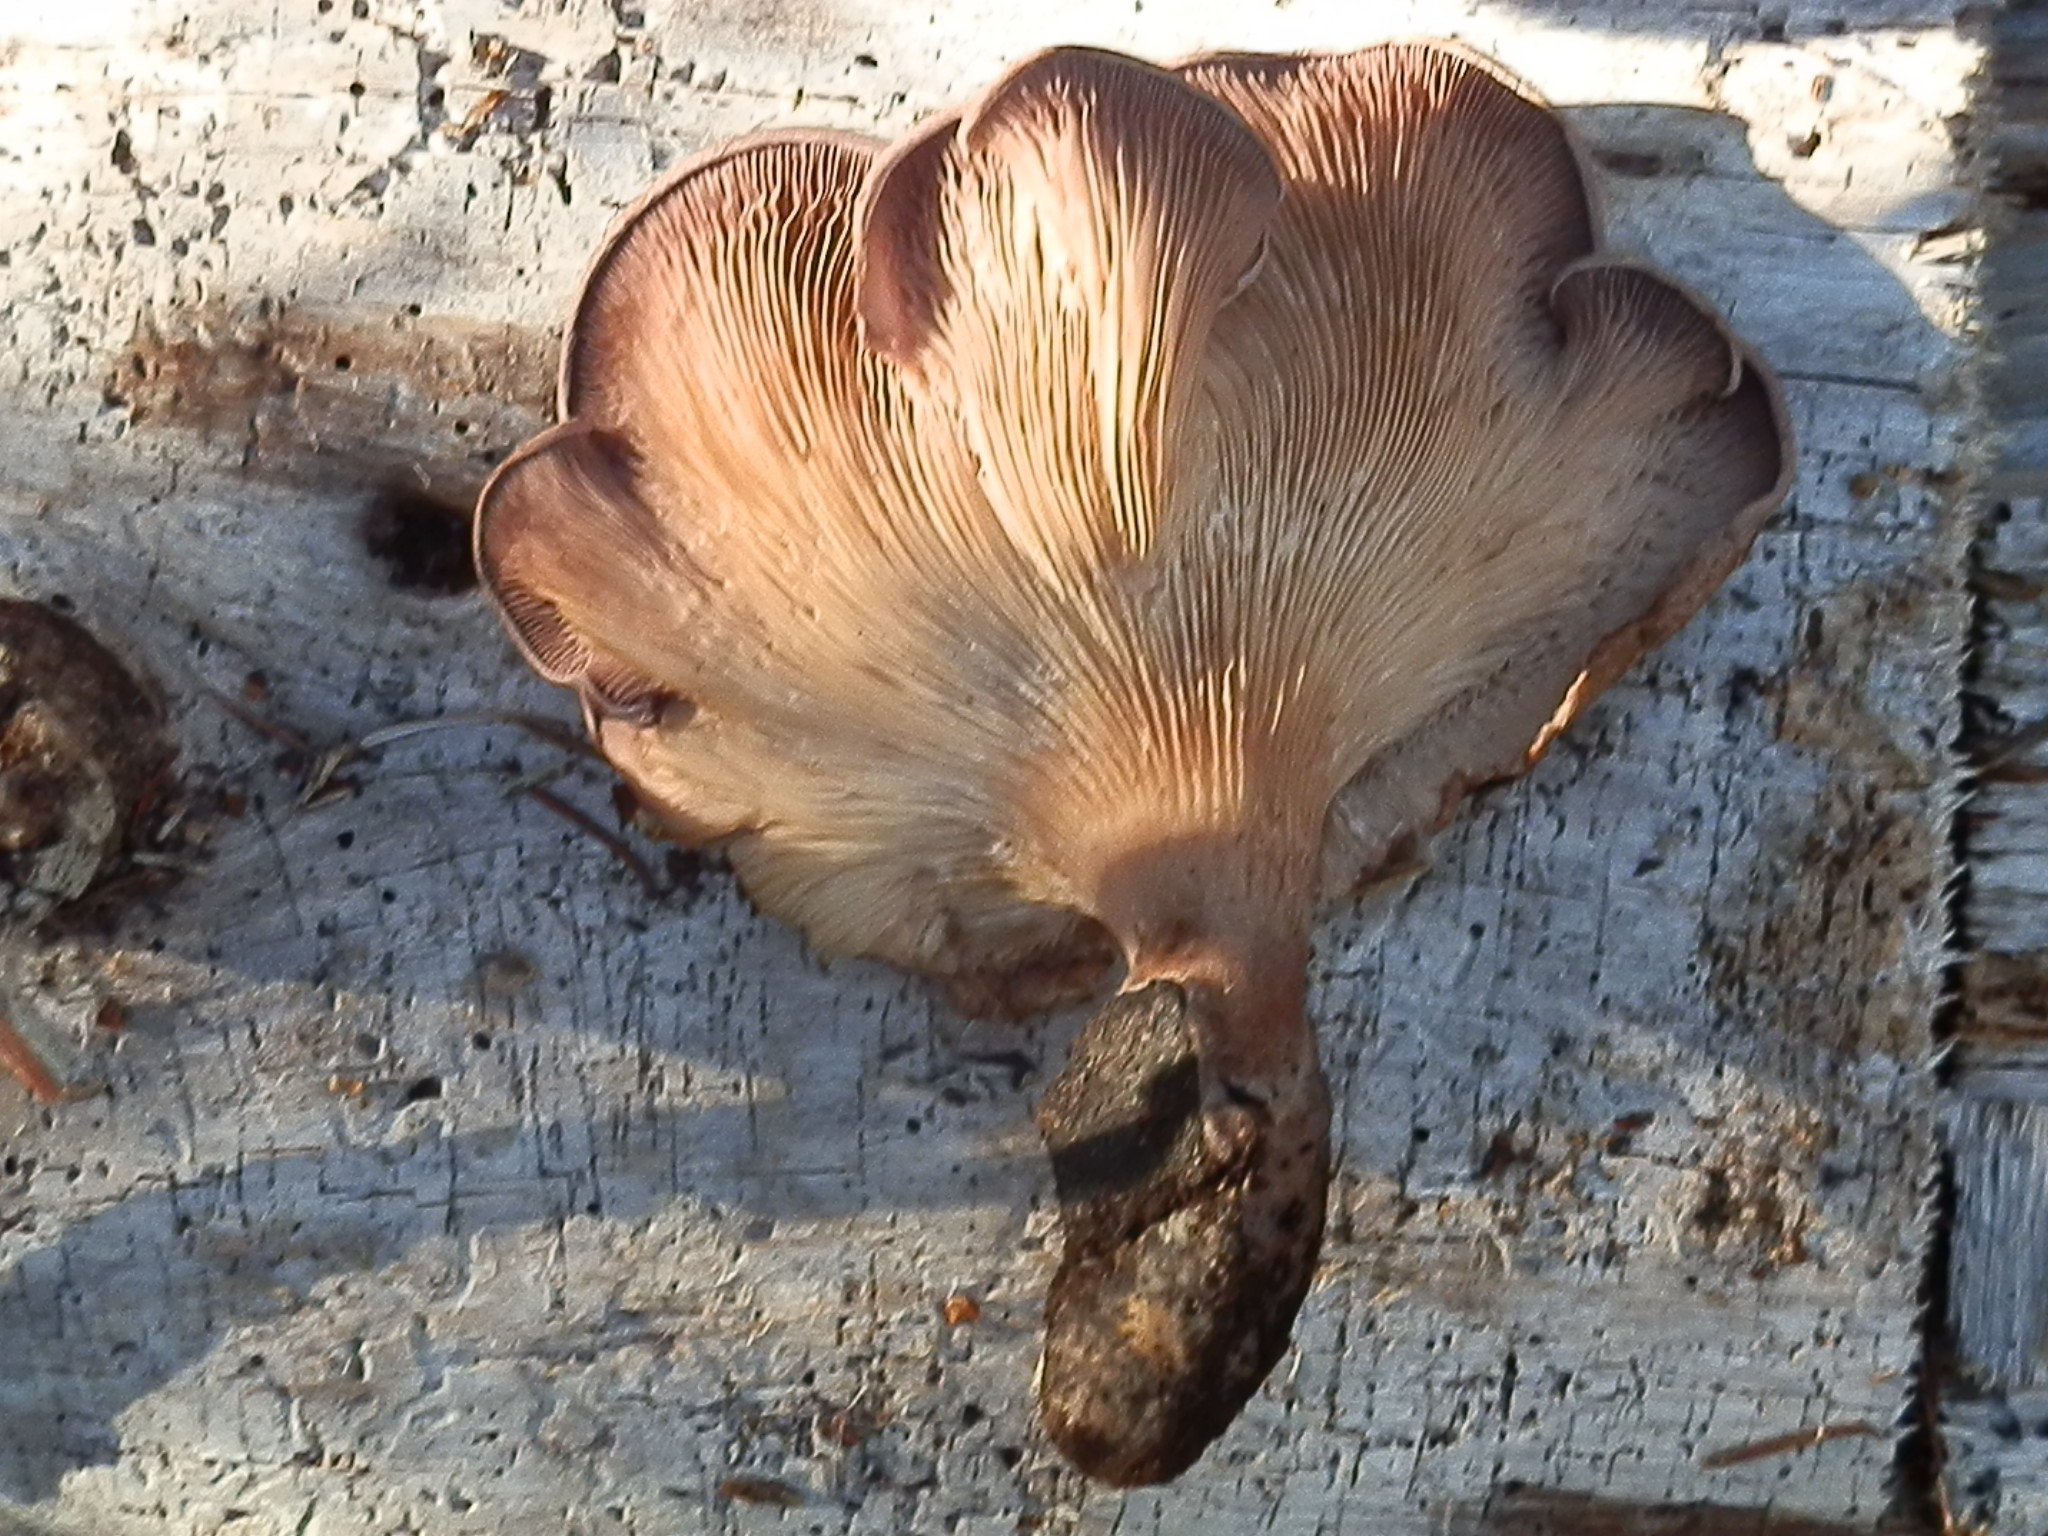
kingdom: Fungi
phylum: Basidiomycota
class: Agaricomycetes
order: Polyporales
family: Panaceae
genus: Panus
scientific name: Panus conchatus
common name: Lilac oysterling
